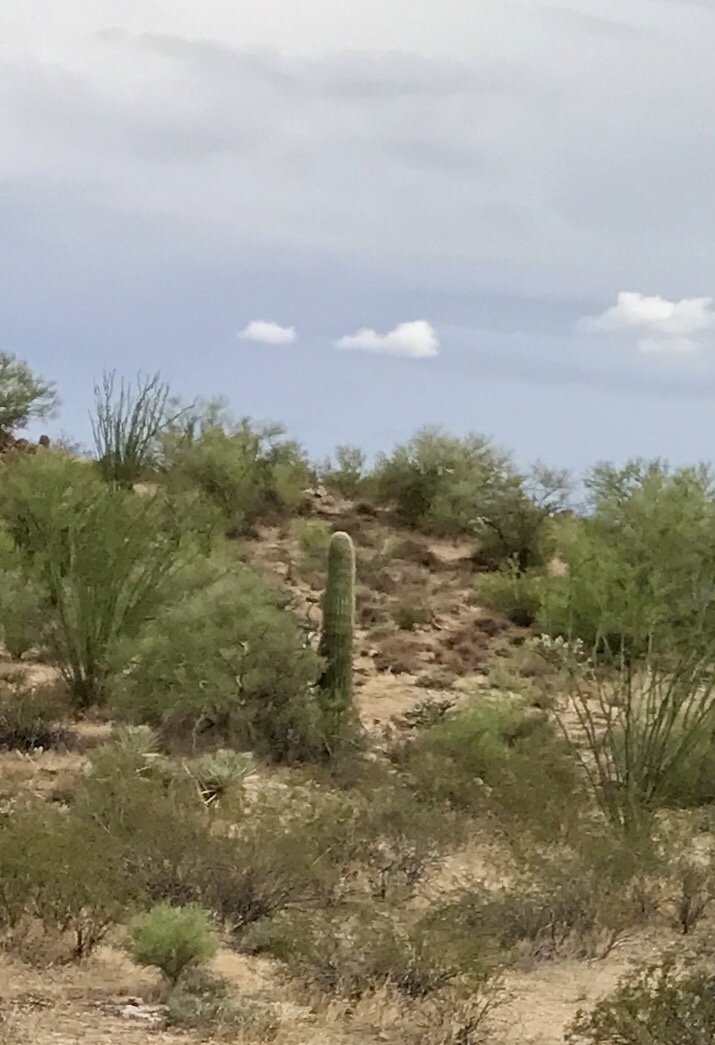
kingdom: Plantae
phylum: Tracheophyta
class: Magnoliopsida
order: Caryophyllales
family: Cactaceae
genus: Carnegiea
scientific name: Carnegiea gigantea
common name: Saguaro
